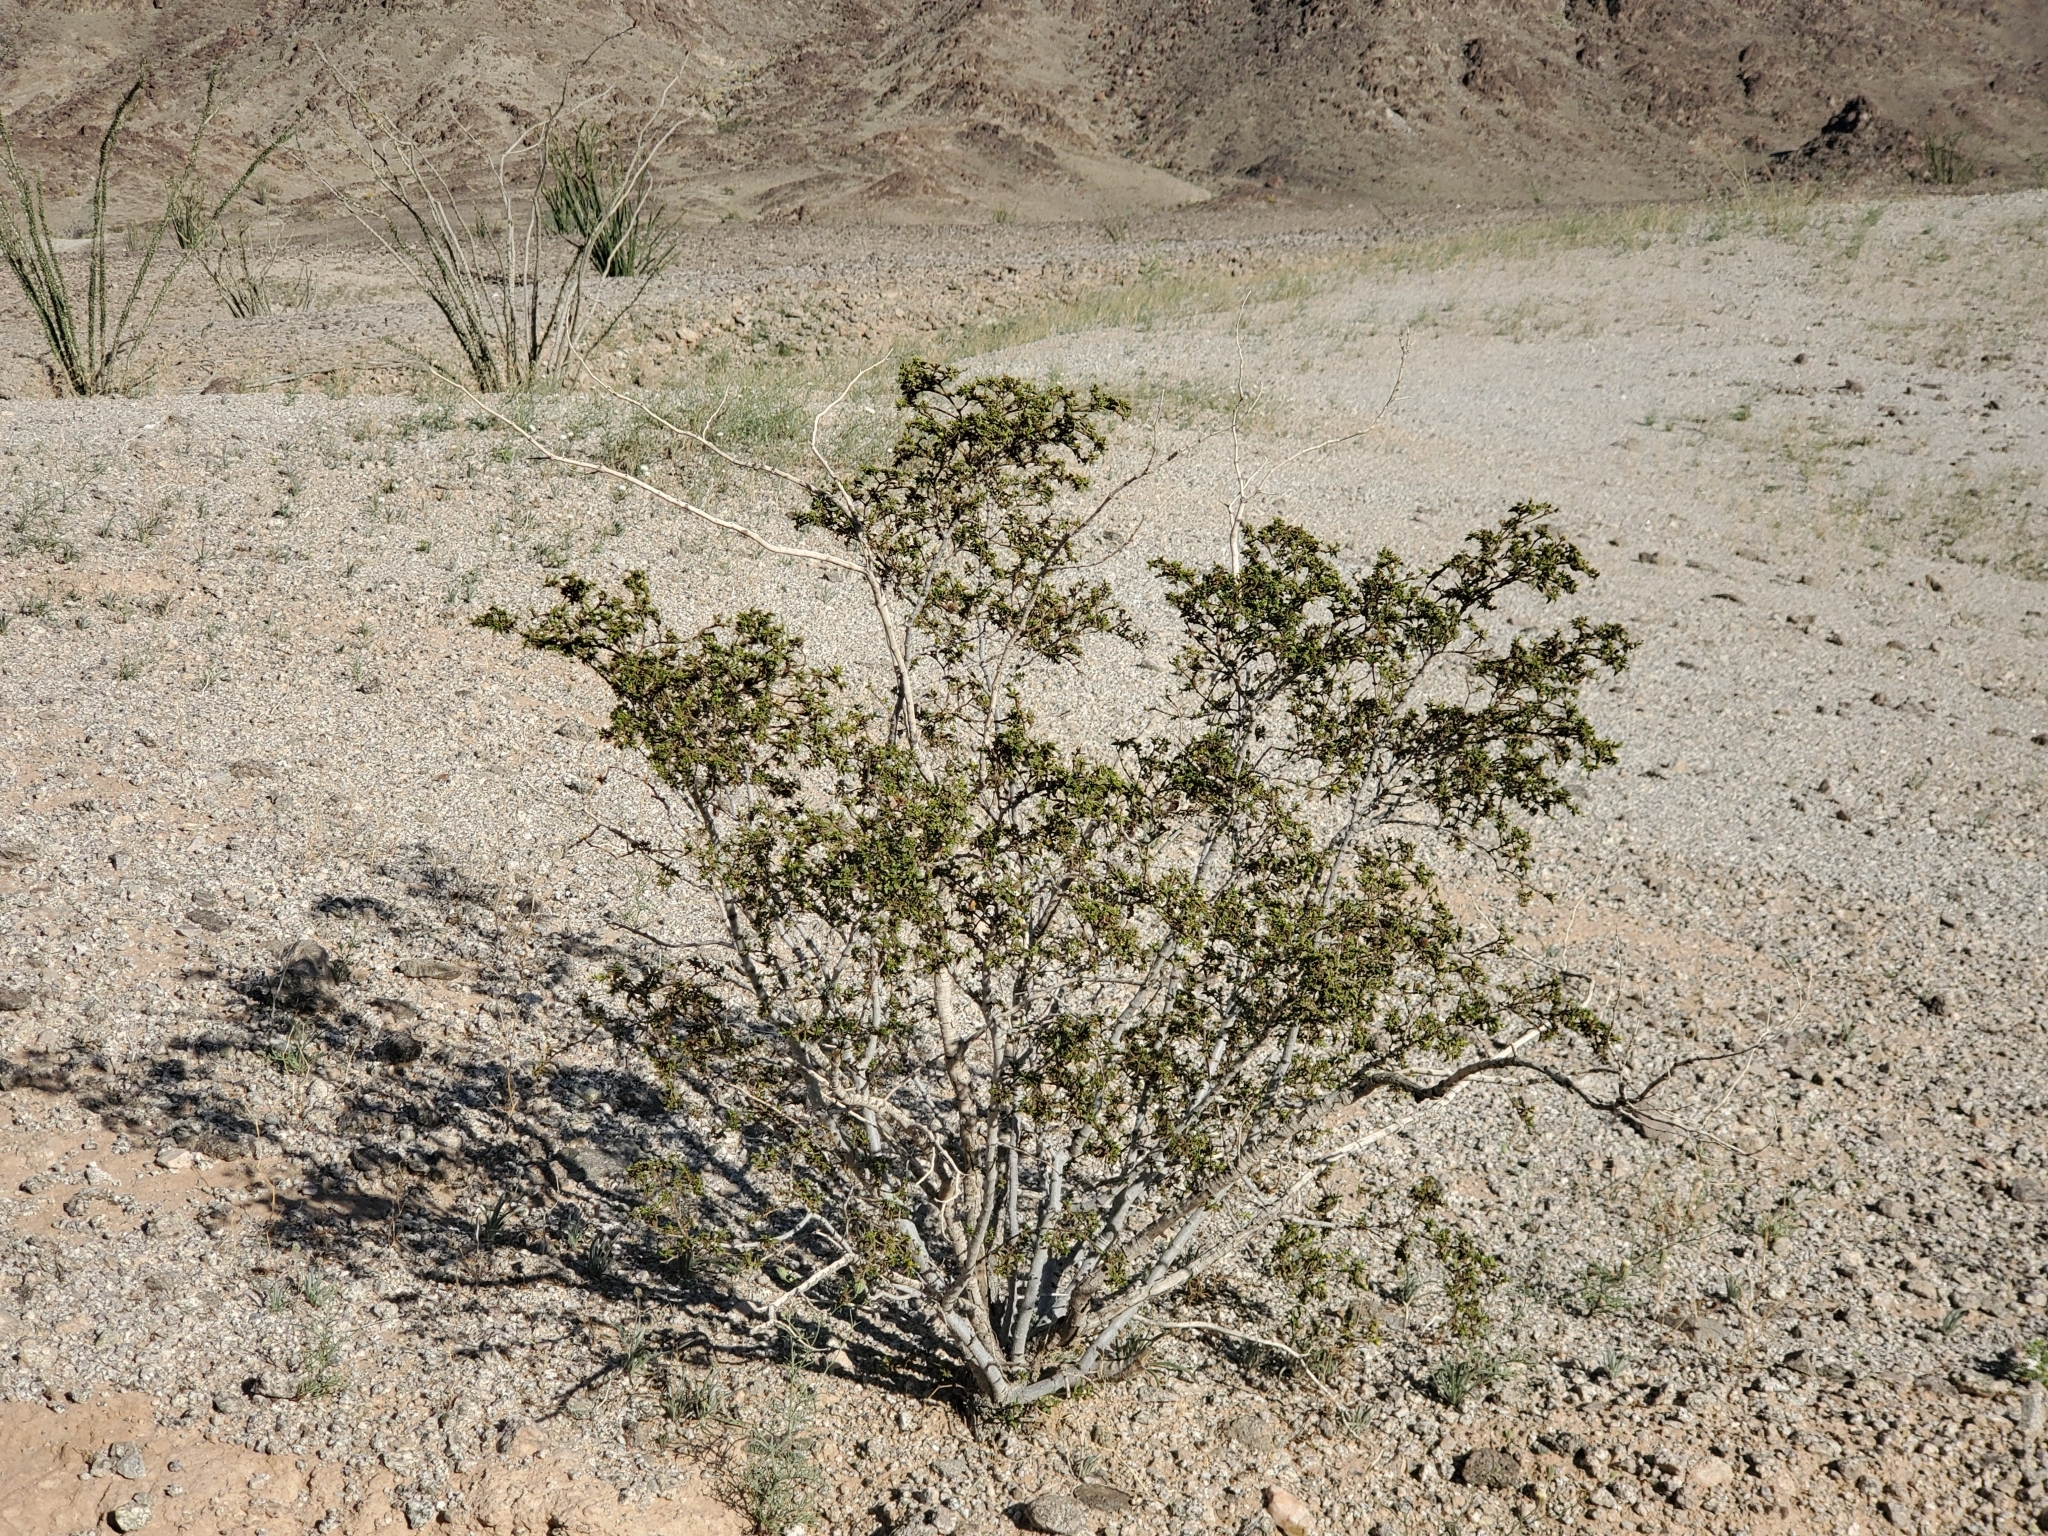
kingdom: Plantae
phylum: Tracheophyta
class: Magnoliopsida
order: Zygophyllales
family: Zygophyllaceae
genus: Larrea
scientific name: Larrea tridentata
